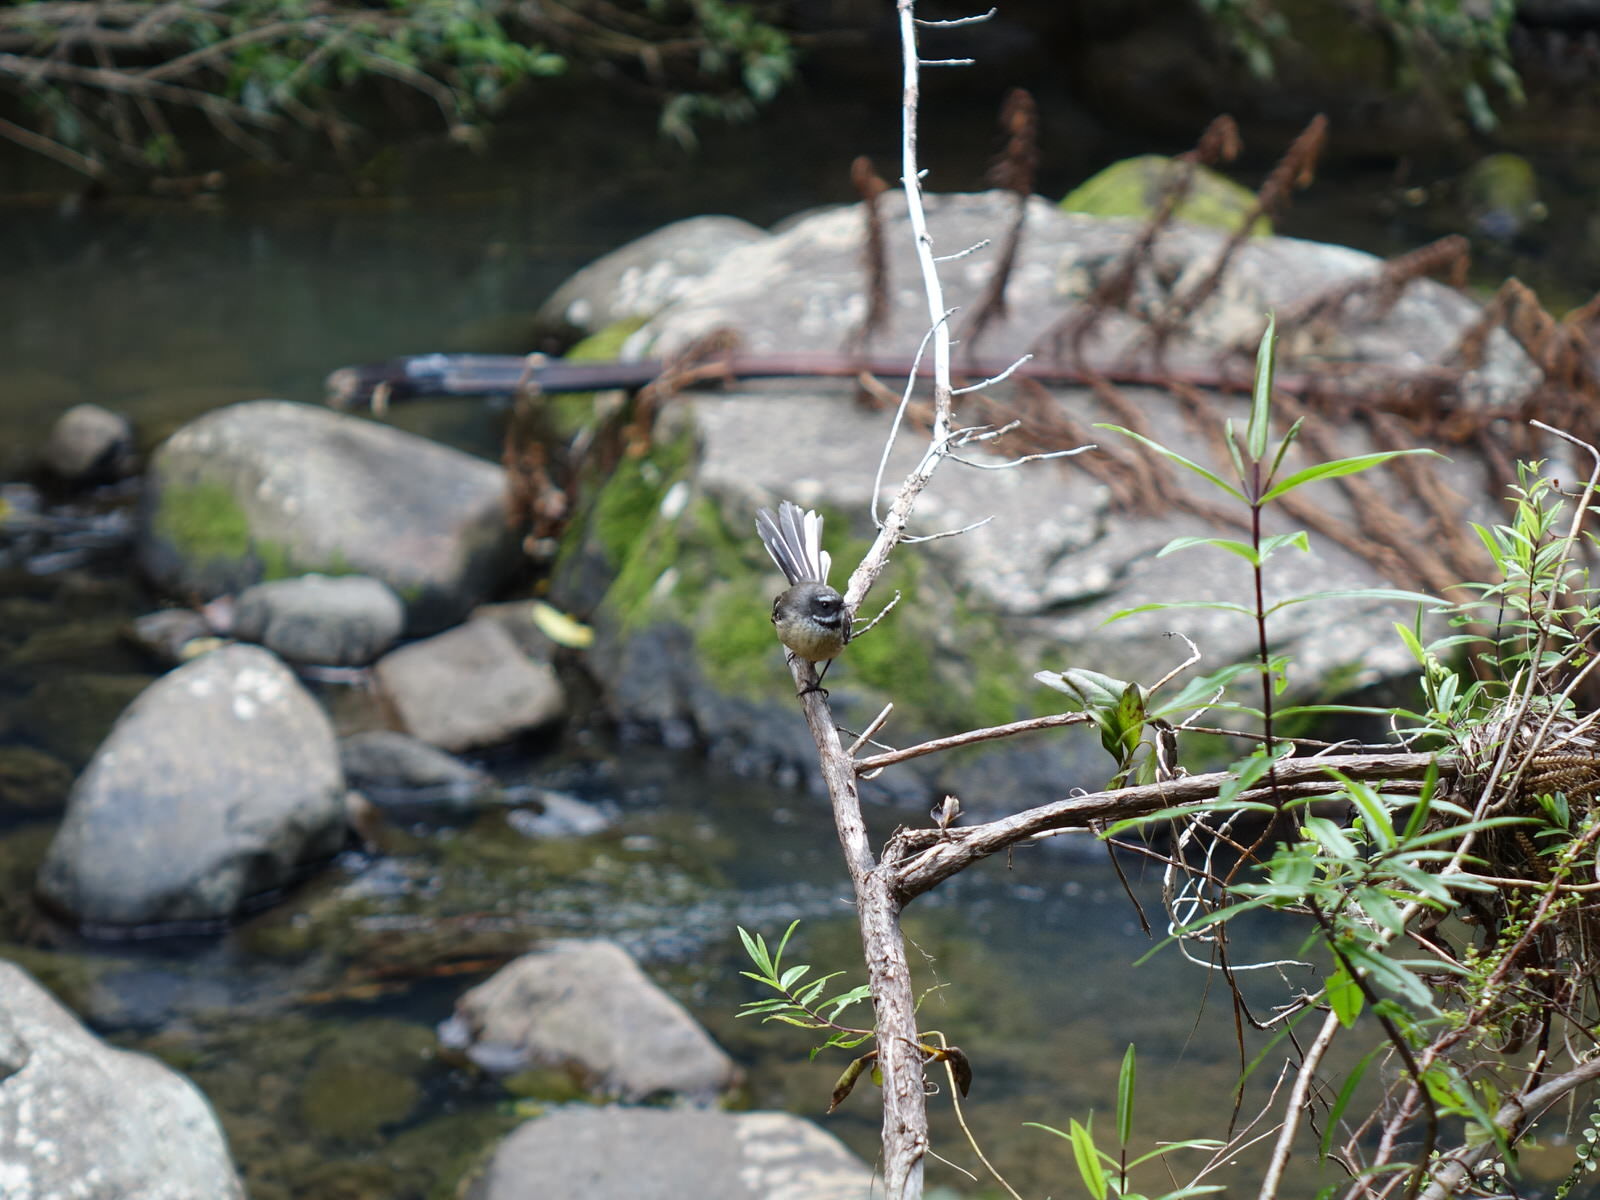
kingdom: Animalia
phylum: Chordata
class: Aves
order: Passeriformes
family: Rhipiduridae
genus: Rhipidura
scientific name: Rhipidura fuliginosa
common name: New zealand fantail
